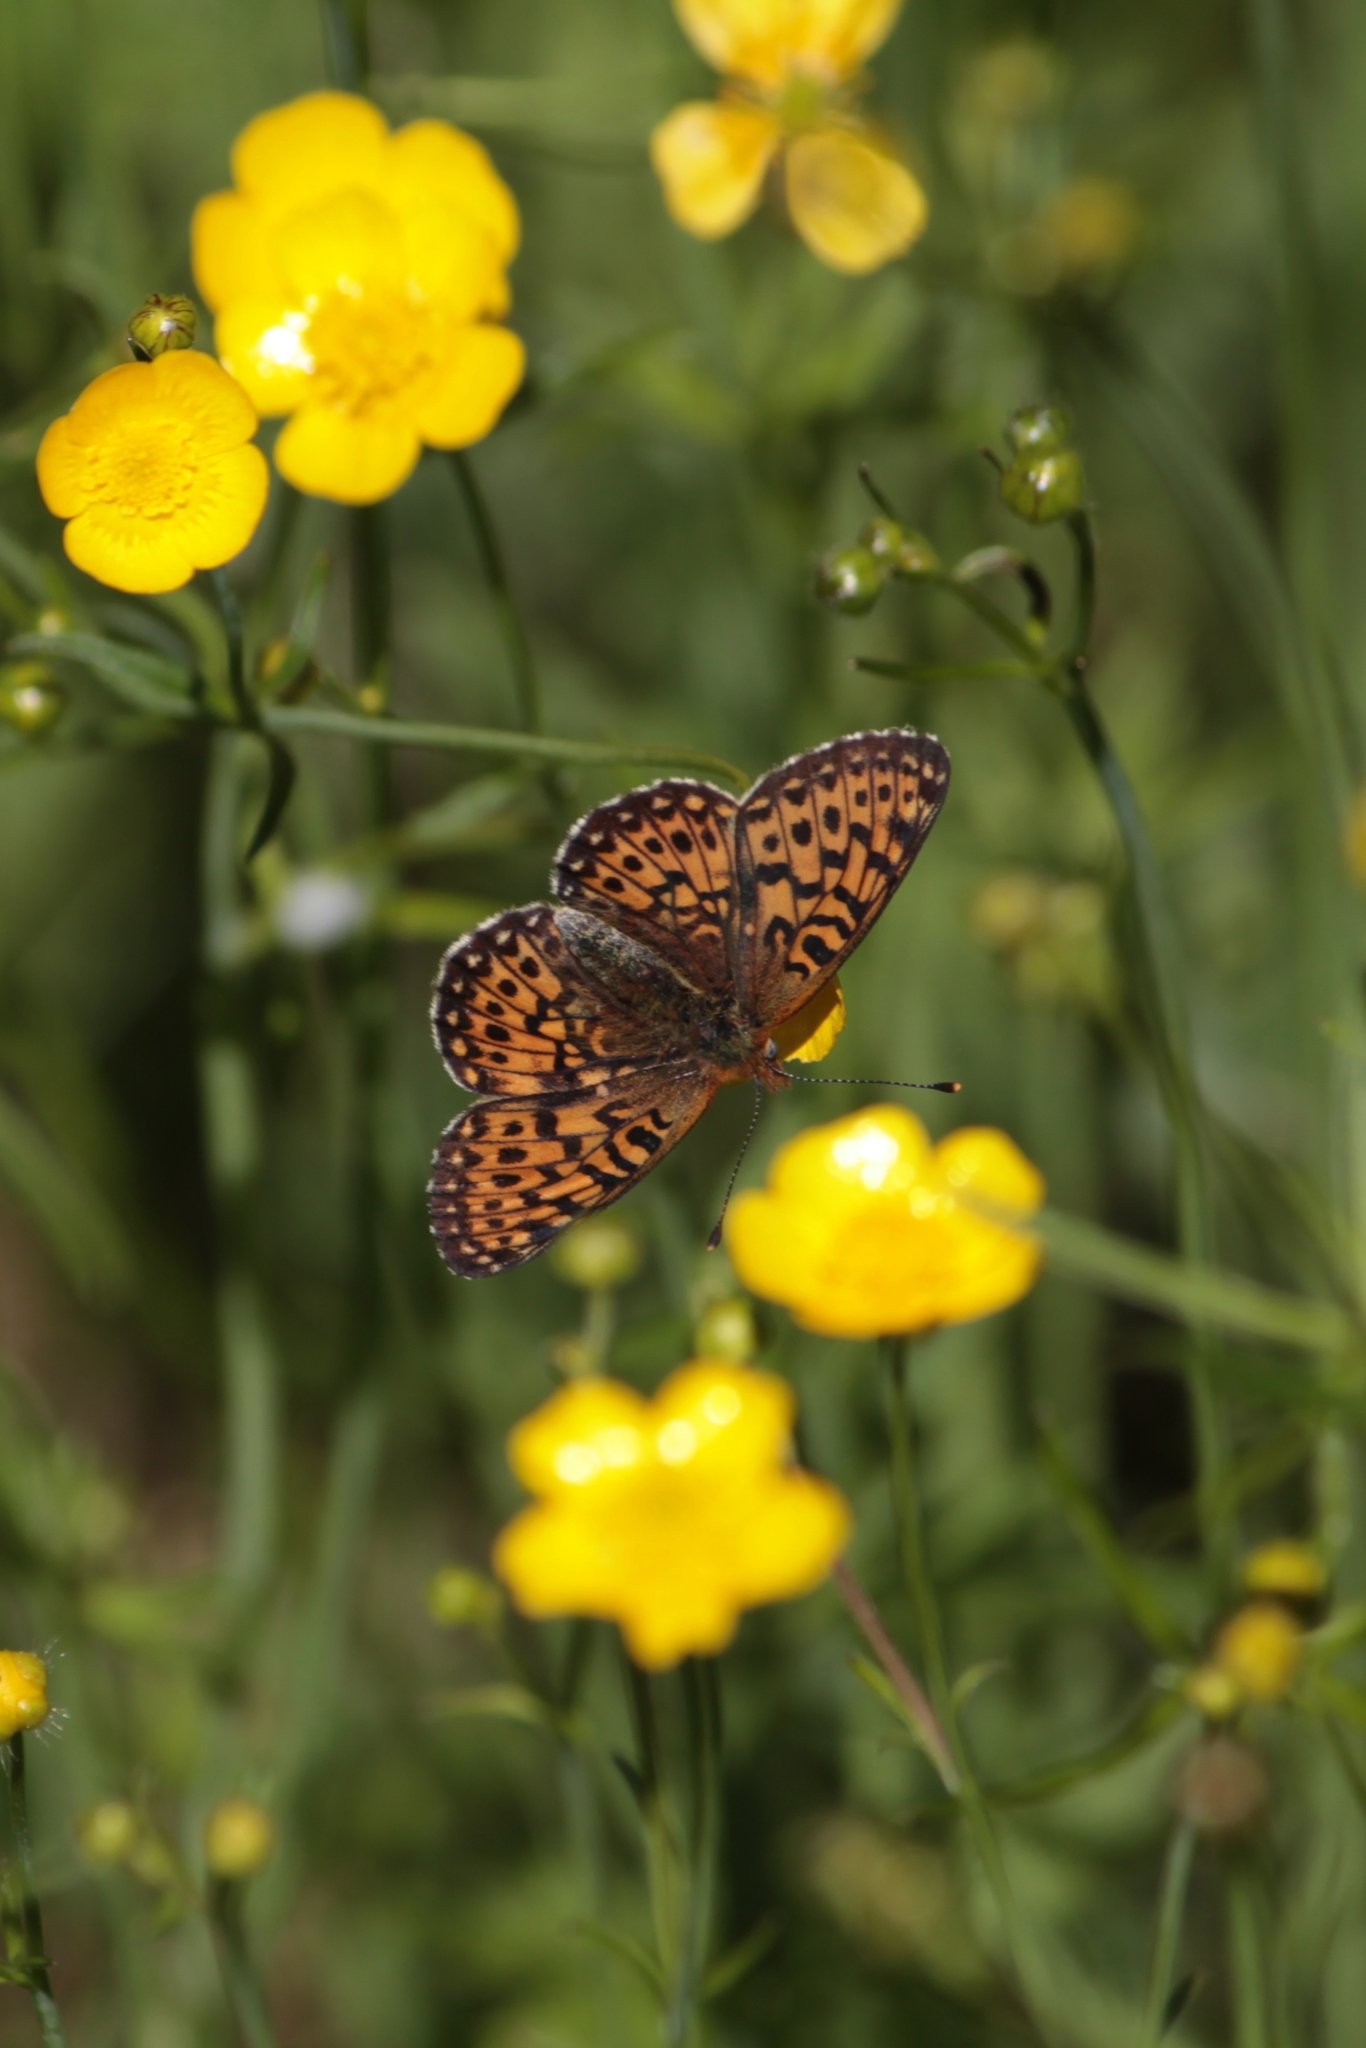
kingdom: Animalia
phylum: Arthropoda
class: Insecta
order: Lepidoptera
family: Nymphalidae
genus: Clossiana
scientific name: Clossiana euphrosyne
